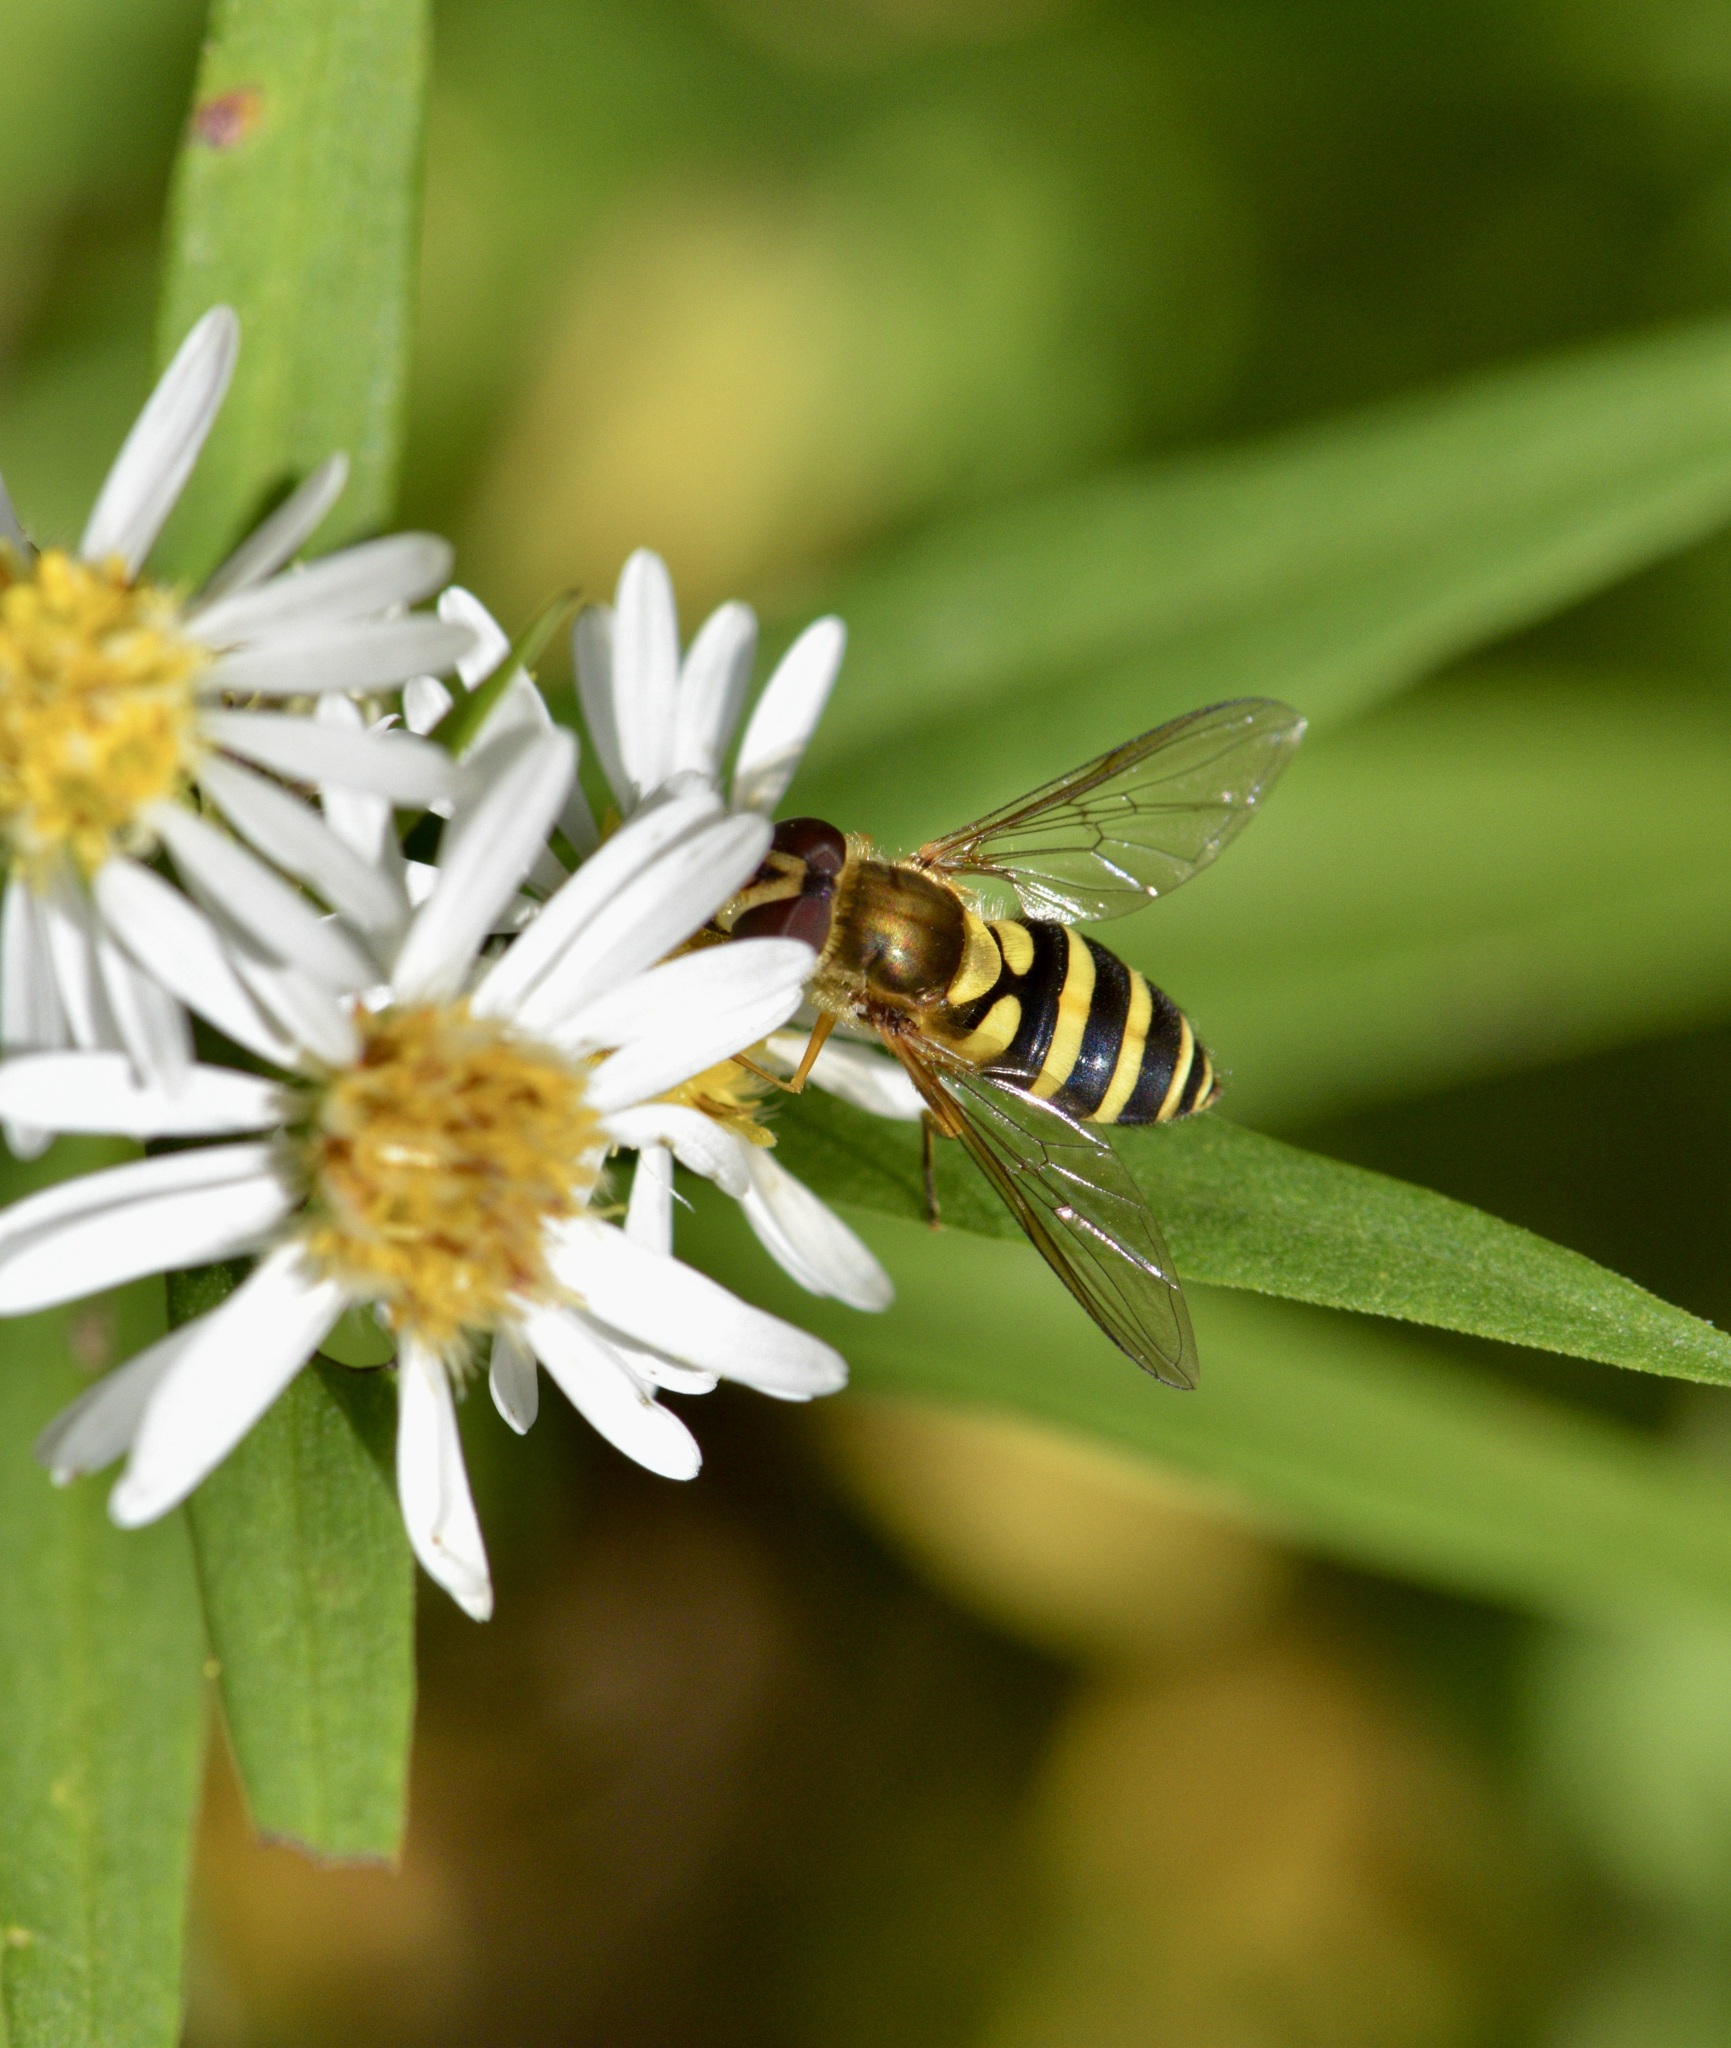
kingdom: Animalia
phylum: Arthropoda
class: Insecta
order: Diptera
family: Syrphidae
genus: Syrphus
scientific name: Syrphus rectus
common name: Yellow-legged flower fly
